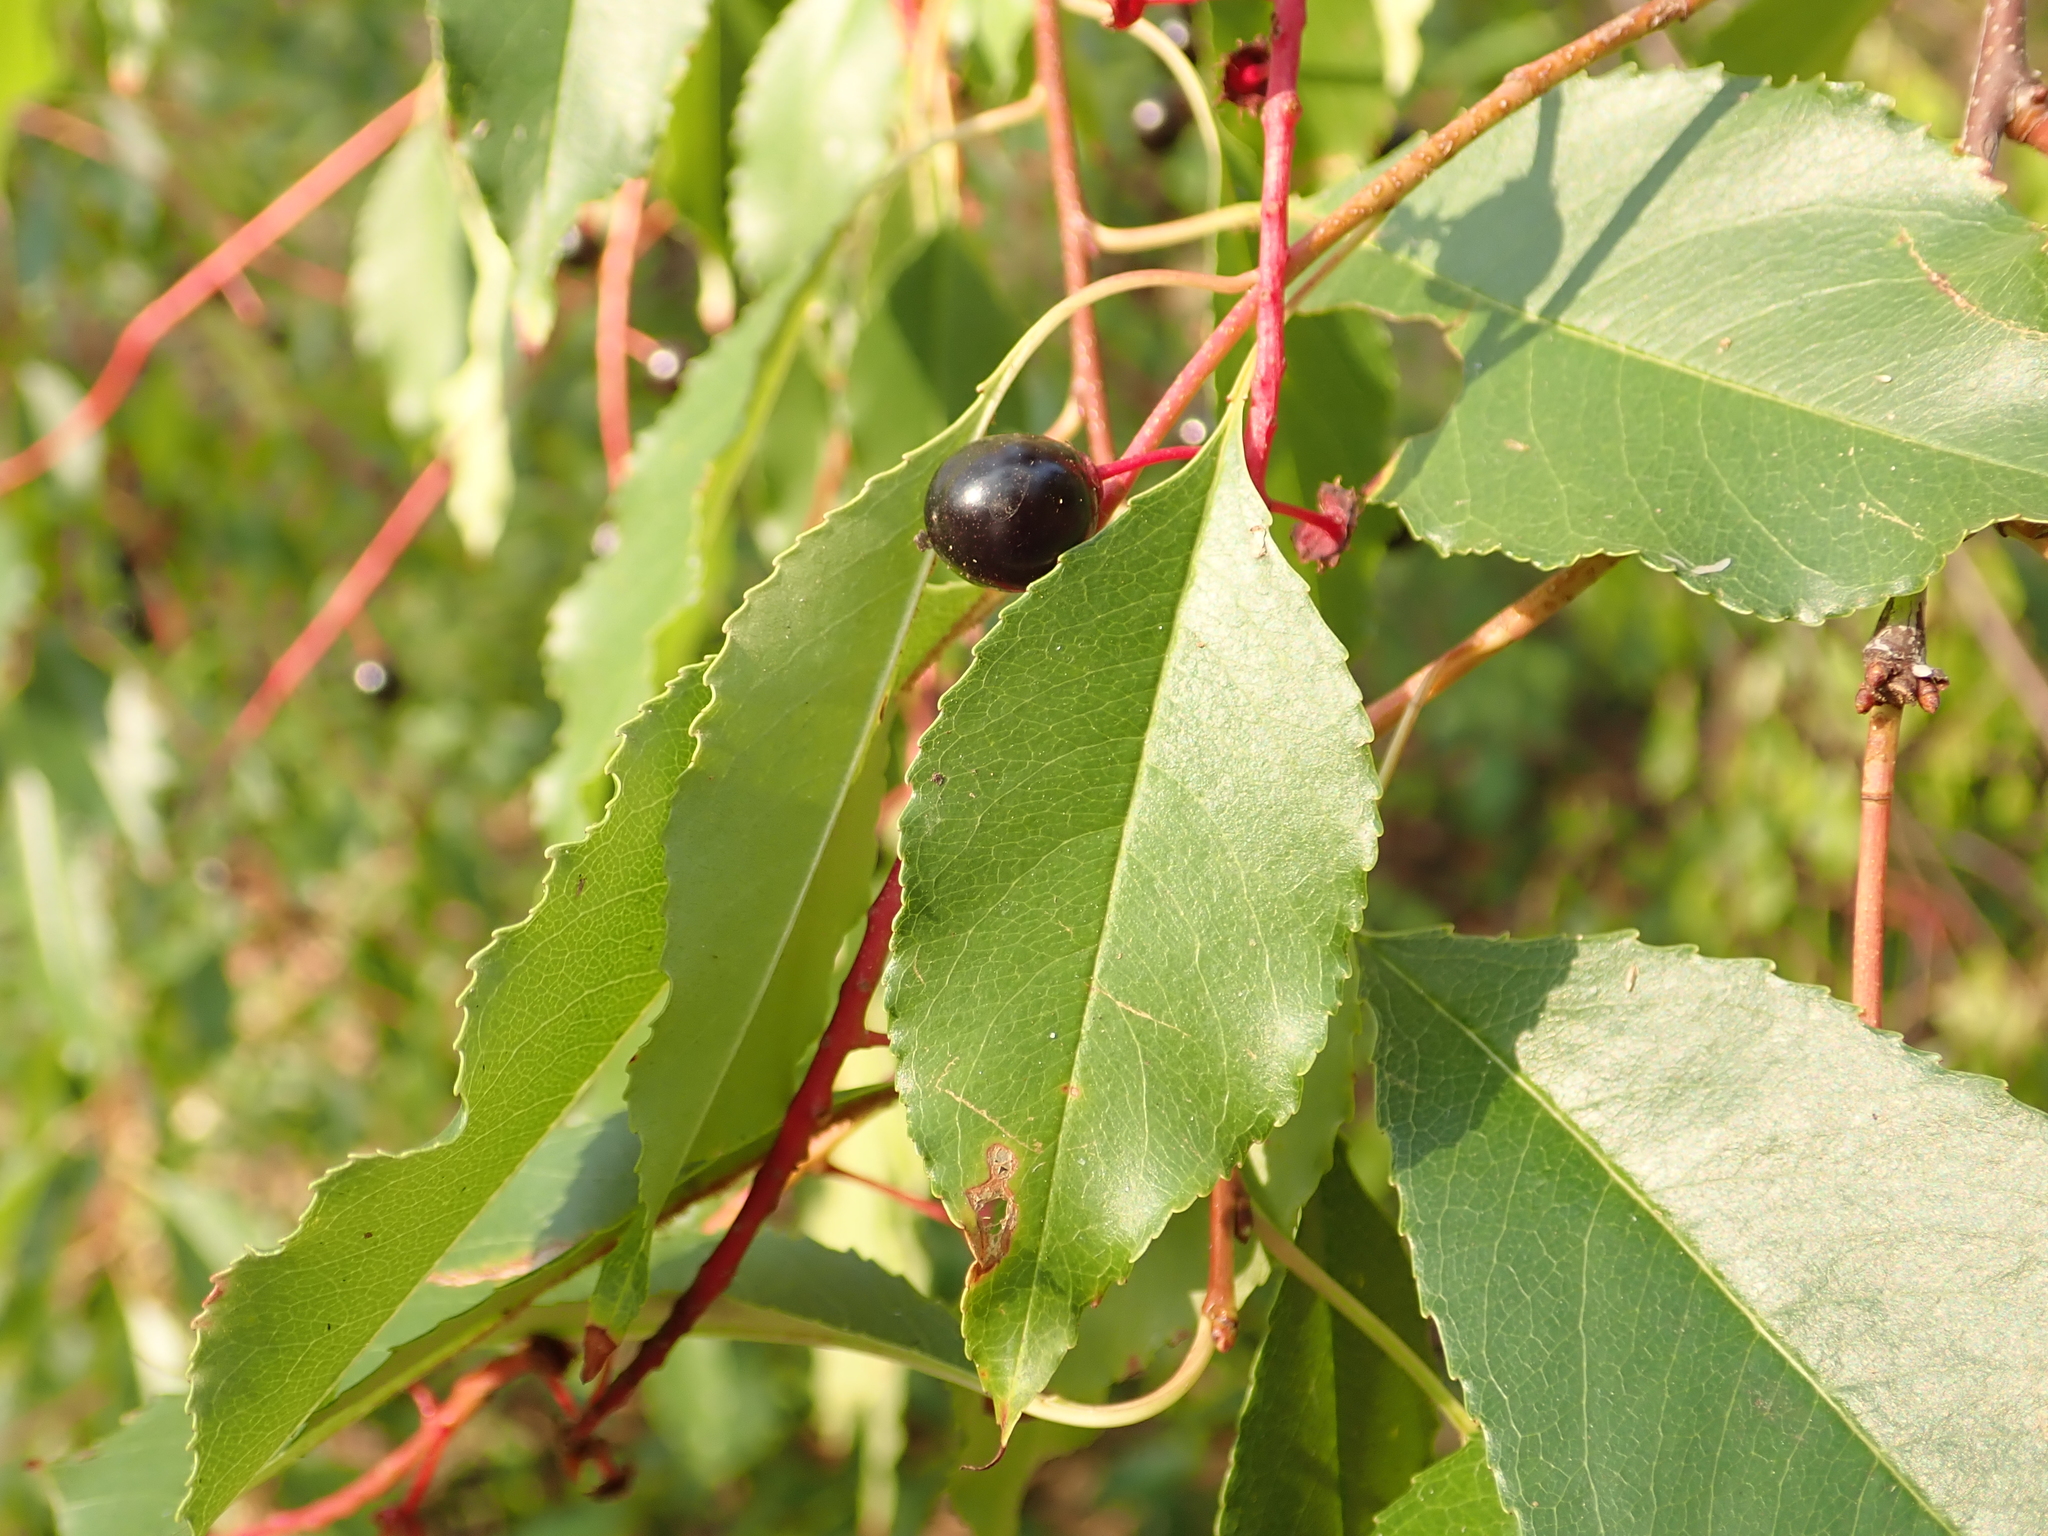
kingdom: Plantae
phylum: Tracheophyta
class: Magnoliopsida
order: Rosales
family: Rosaceae
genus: Prunus
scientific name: Prunus serotina
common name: Black cherry
